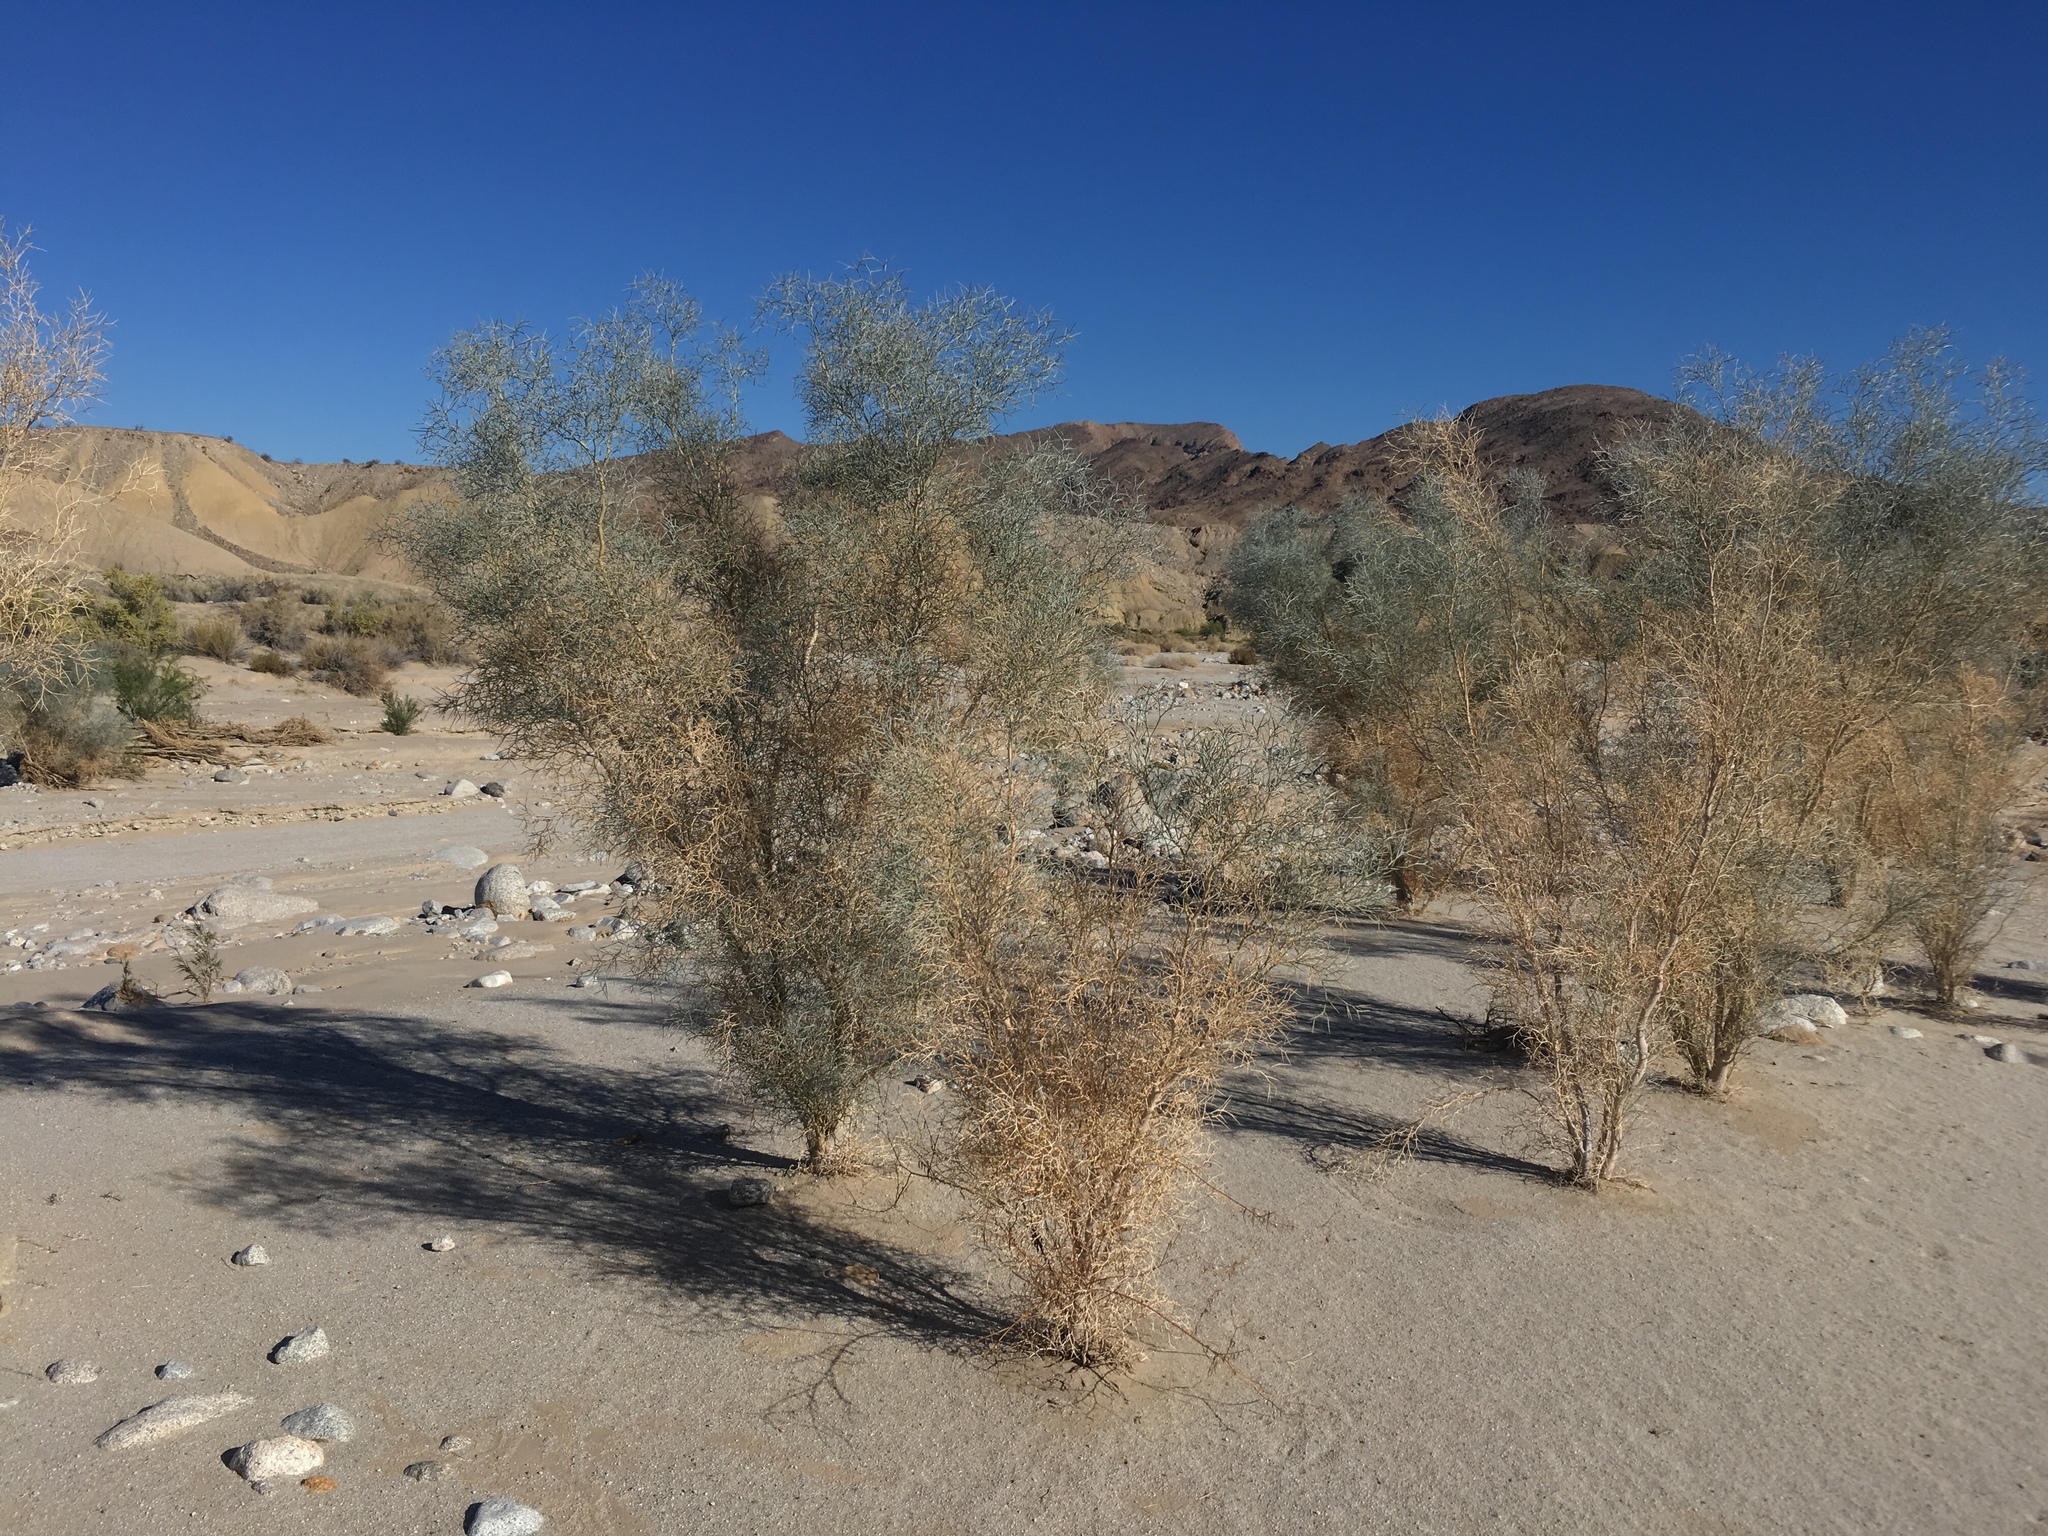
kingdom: Plantae
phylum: Tracheophyta
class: Magnoliopsida
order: Fabales
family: Fabaceae
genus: Psorothamnus
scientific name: Psorothamnus spinosus
